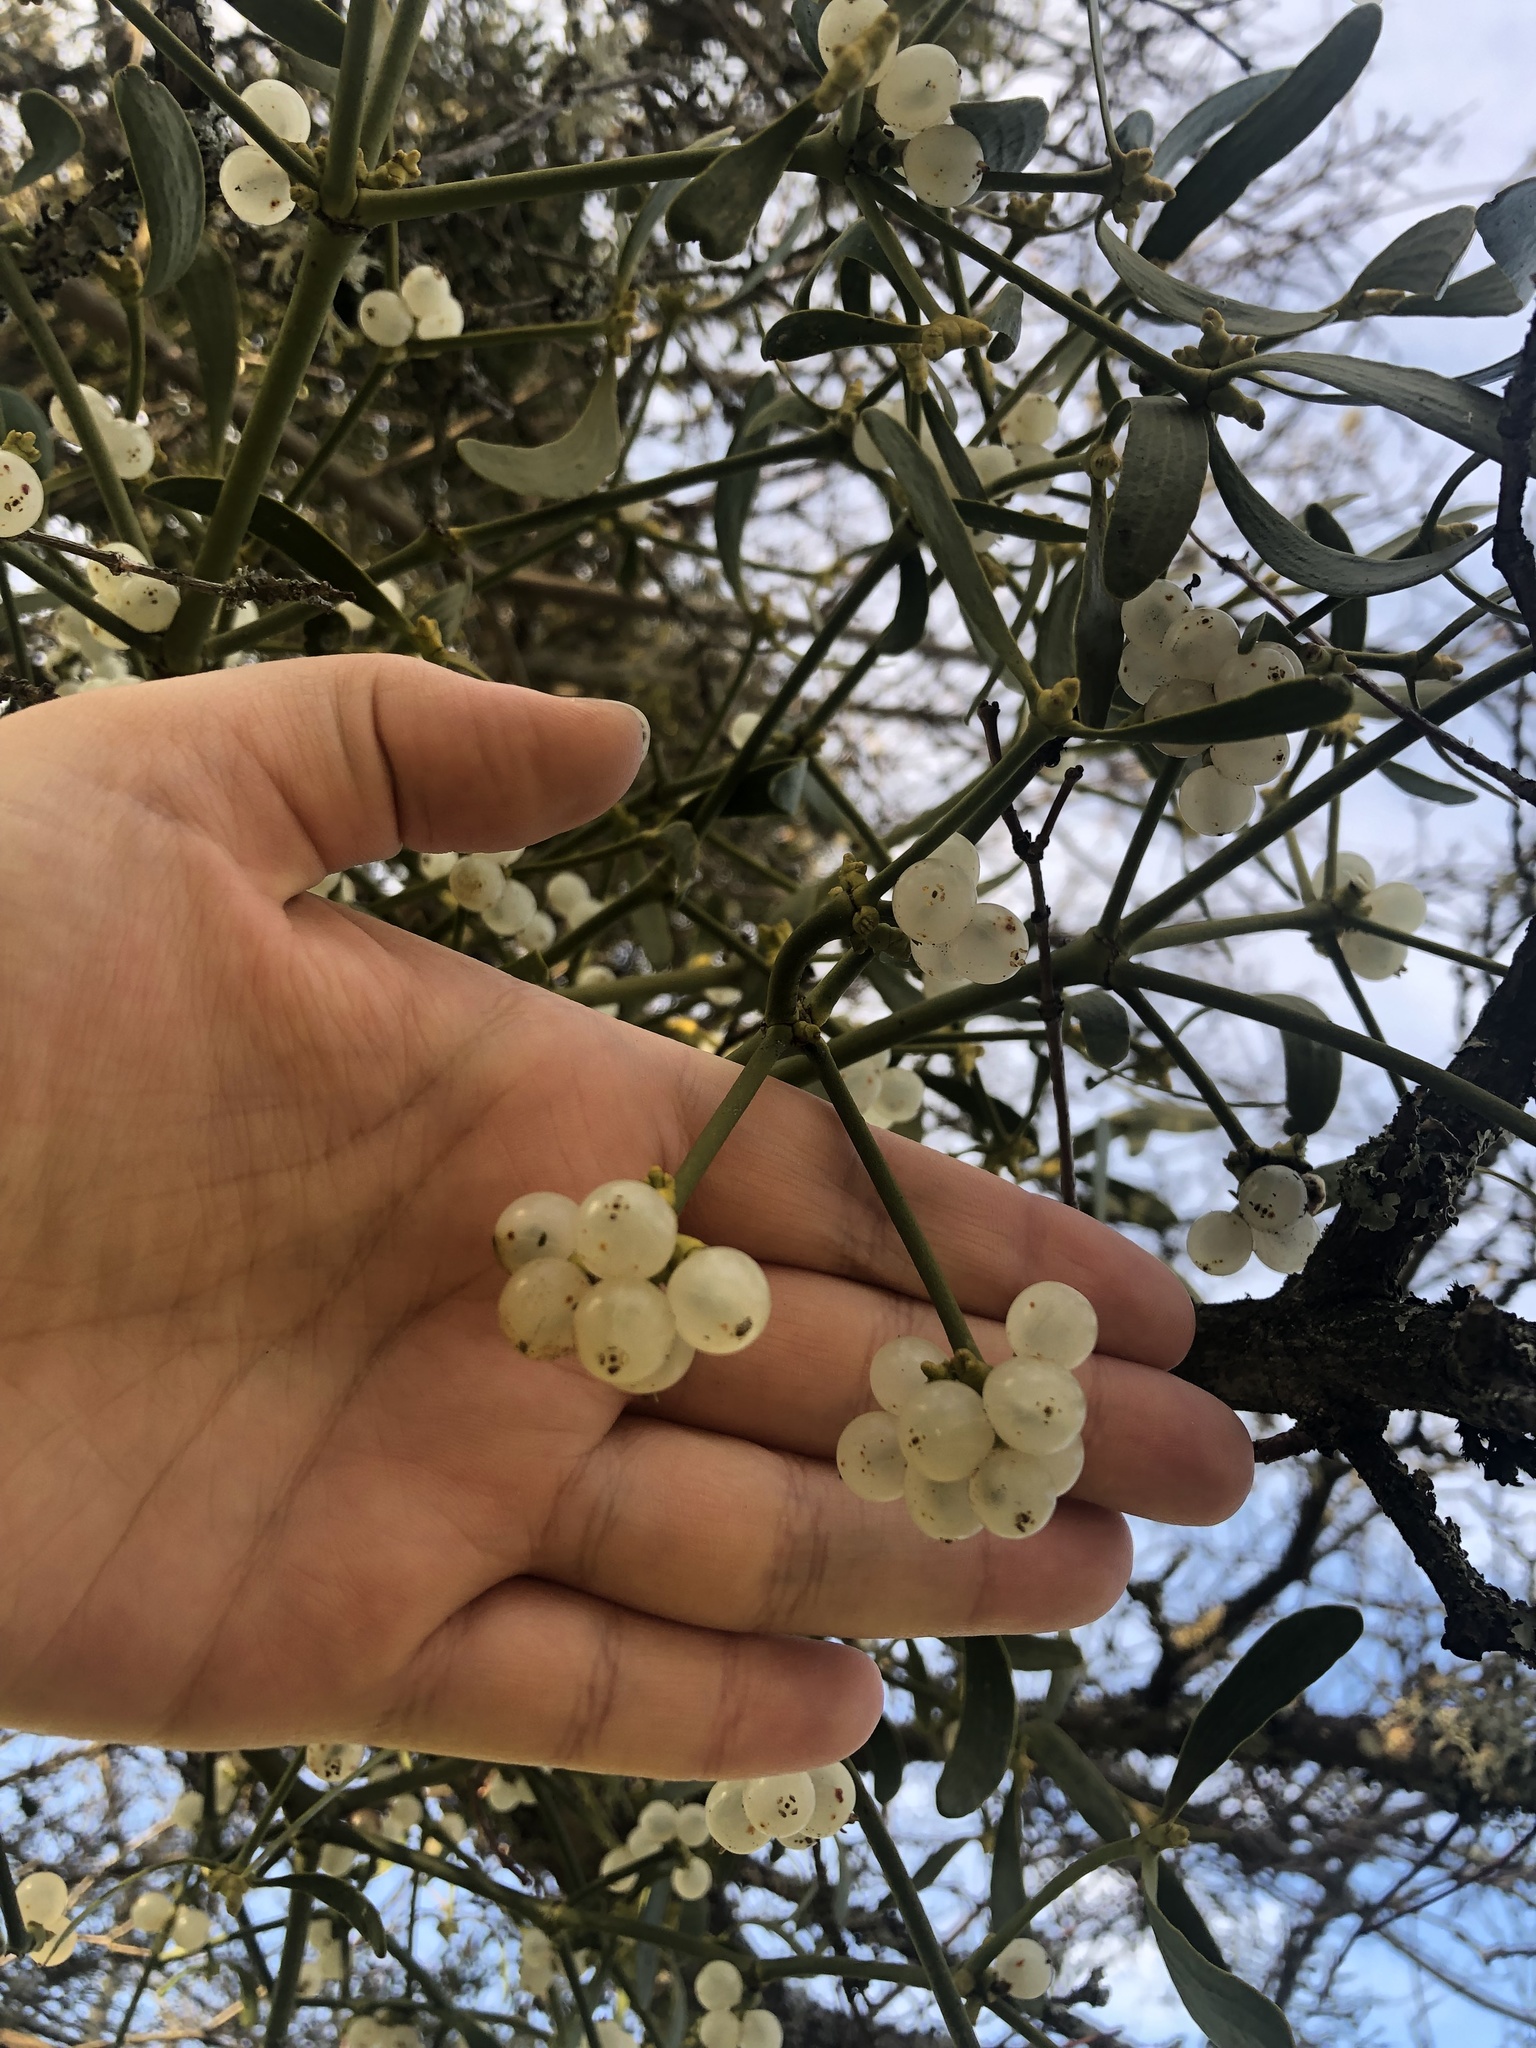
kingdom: Plantae
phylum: Tracheophyta
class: Magnoliopsida
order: Santalales
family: Viscaceae
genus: Viscum
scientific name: Viscum album
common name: Mistletoe
